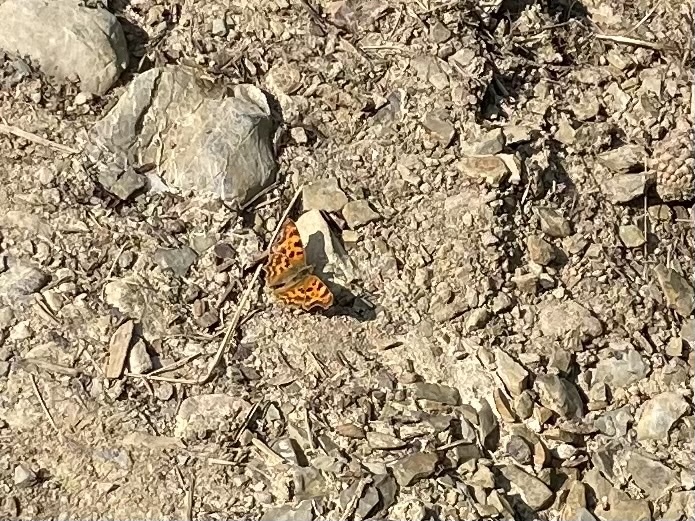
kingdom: Animalia
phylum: Arthropoda
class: Insecta
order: Lepidoptera
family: Nymphalidae
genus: Polygonia
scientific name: Polygonia c-album
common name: Comma
